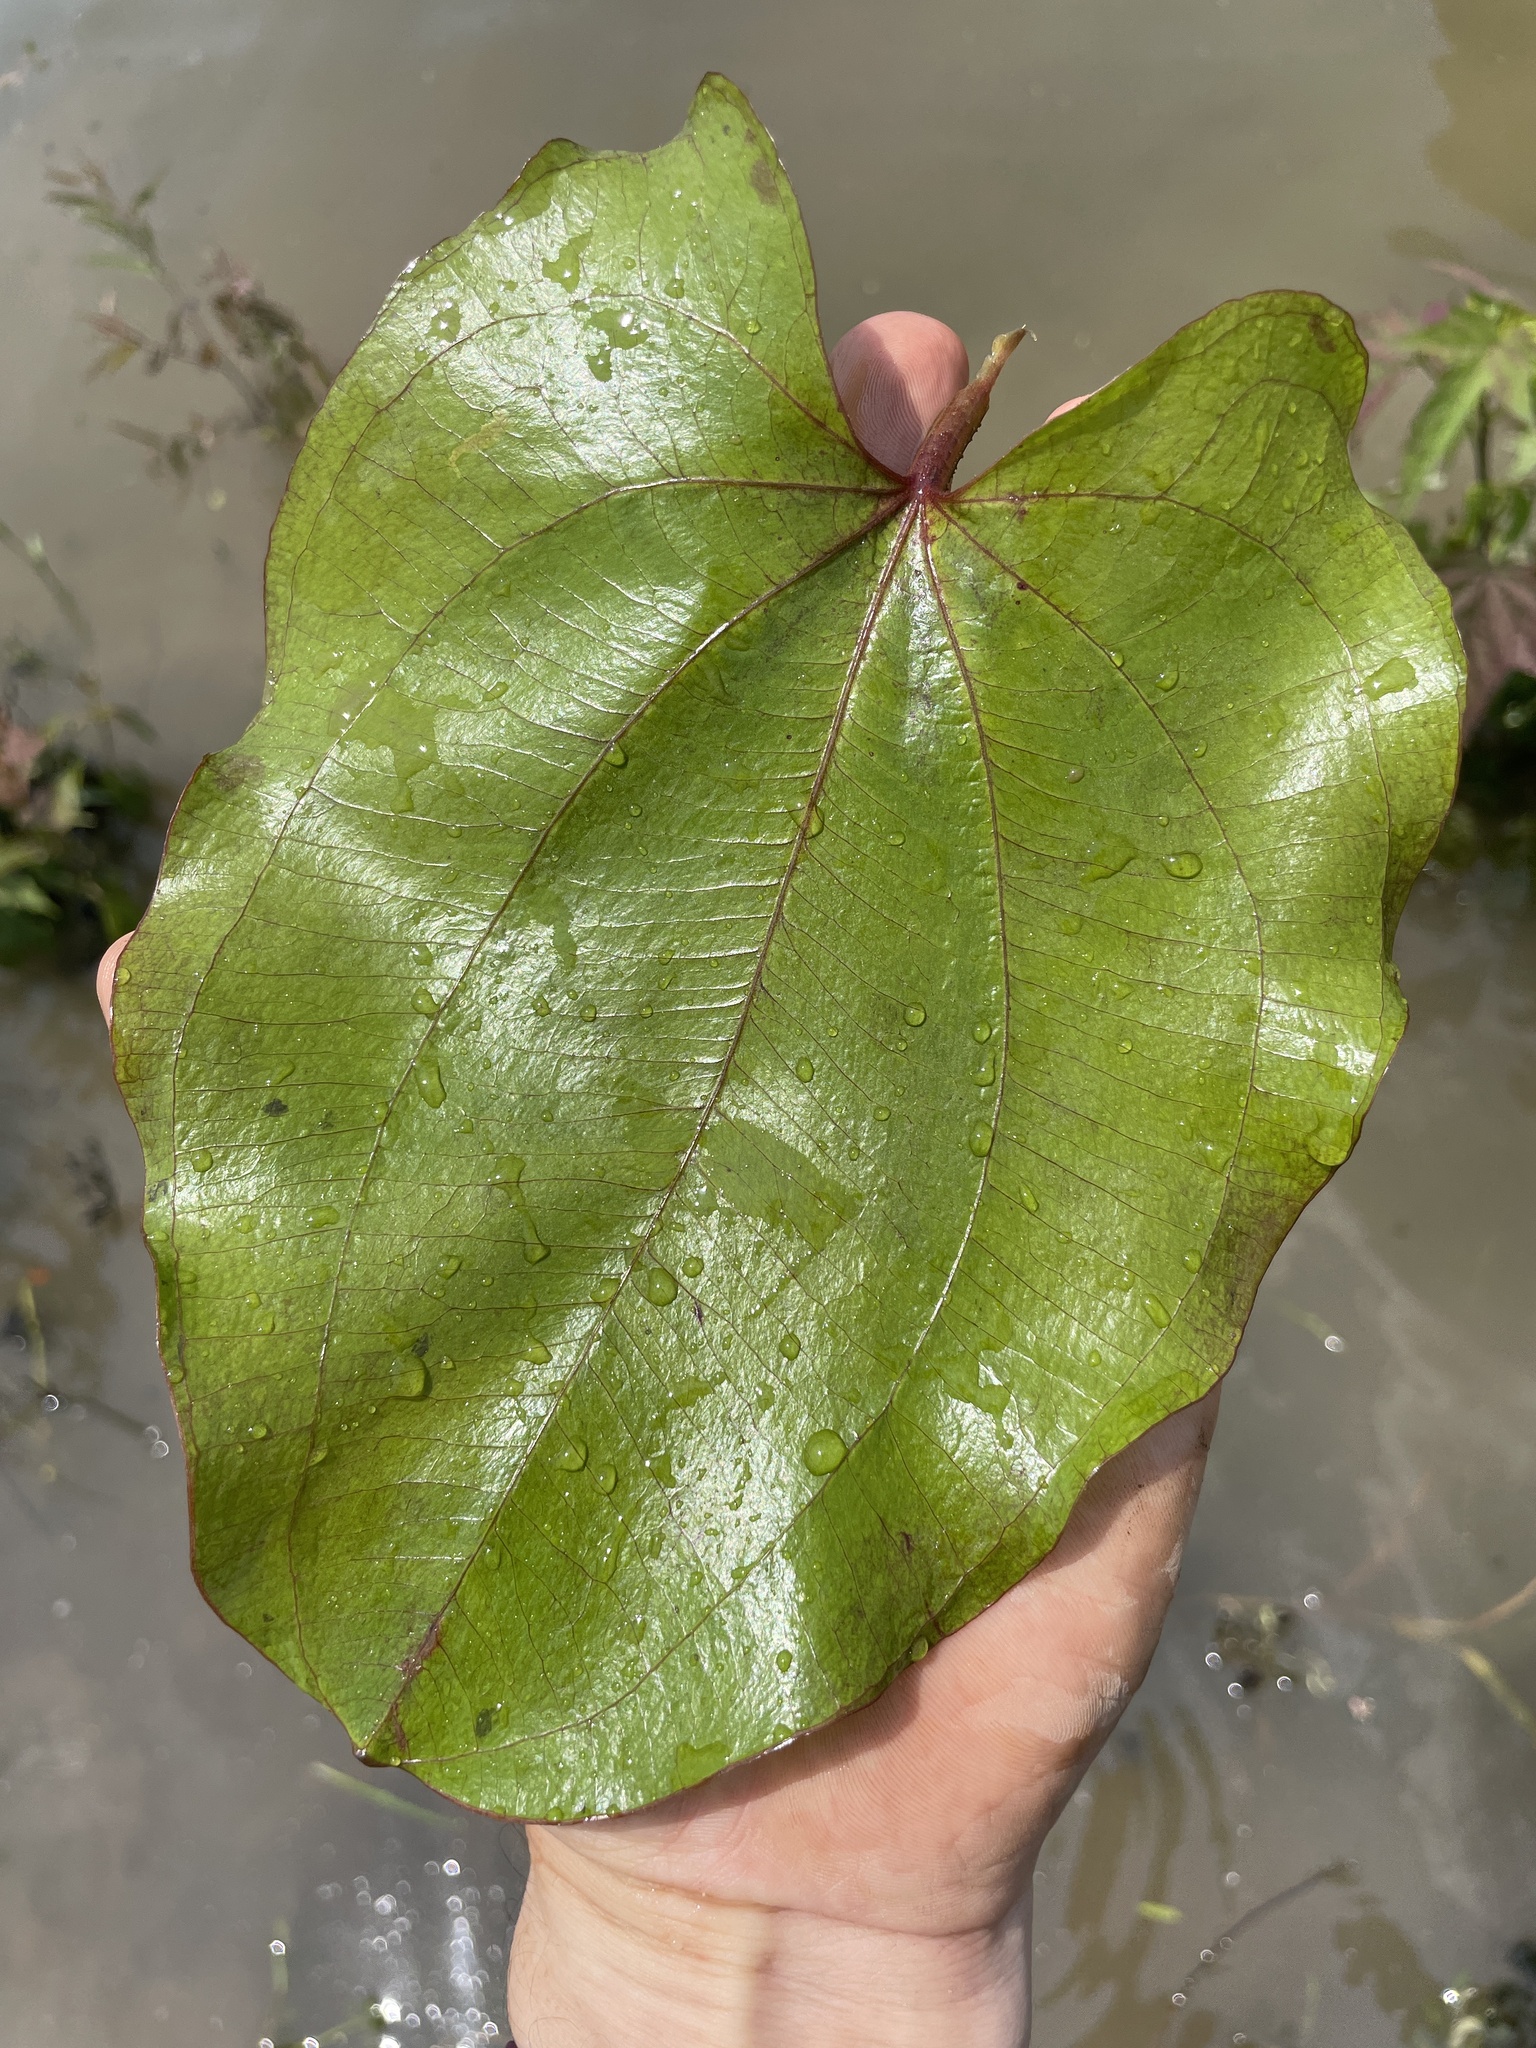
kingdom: Plantae
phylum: Tracheophyta
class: Liliopsida
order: Alismatales
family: Alismataceae
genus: Aquarius
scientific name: Aquarius cordifolius
